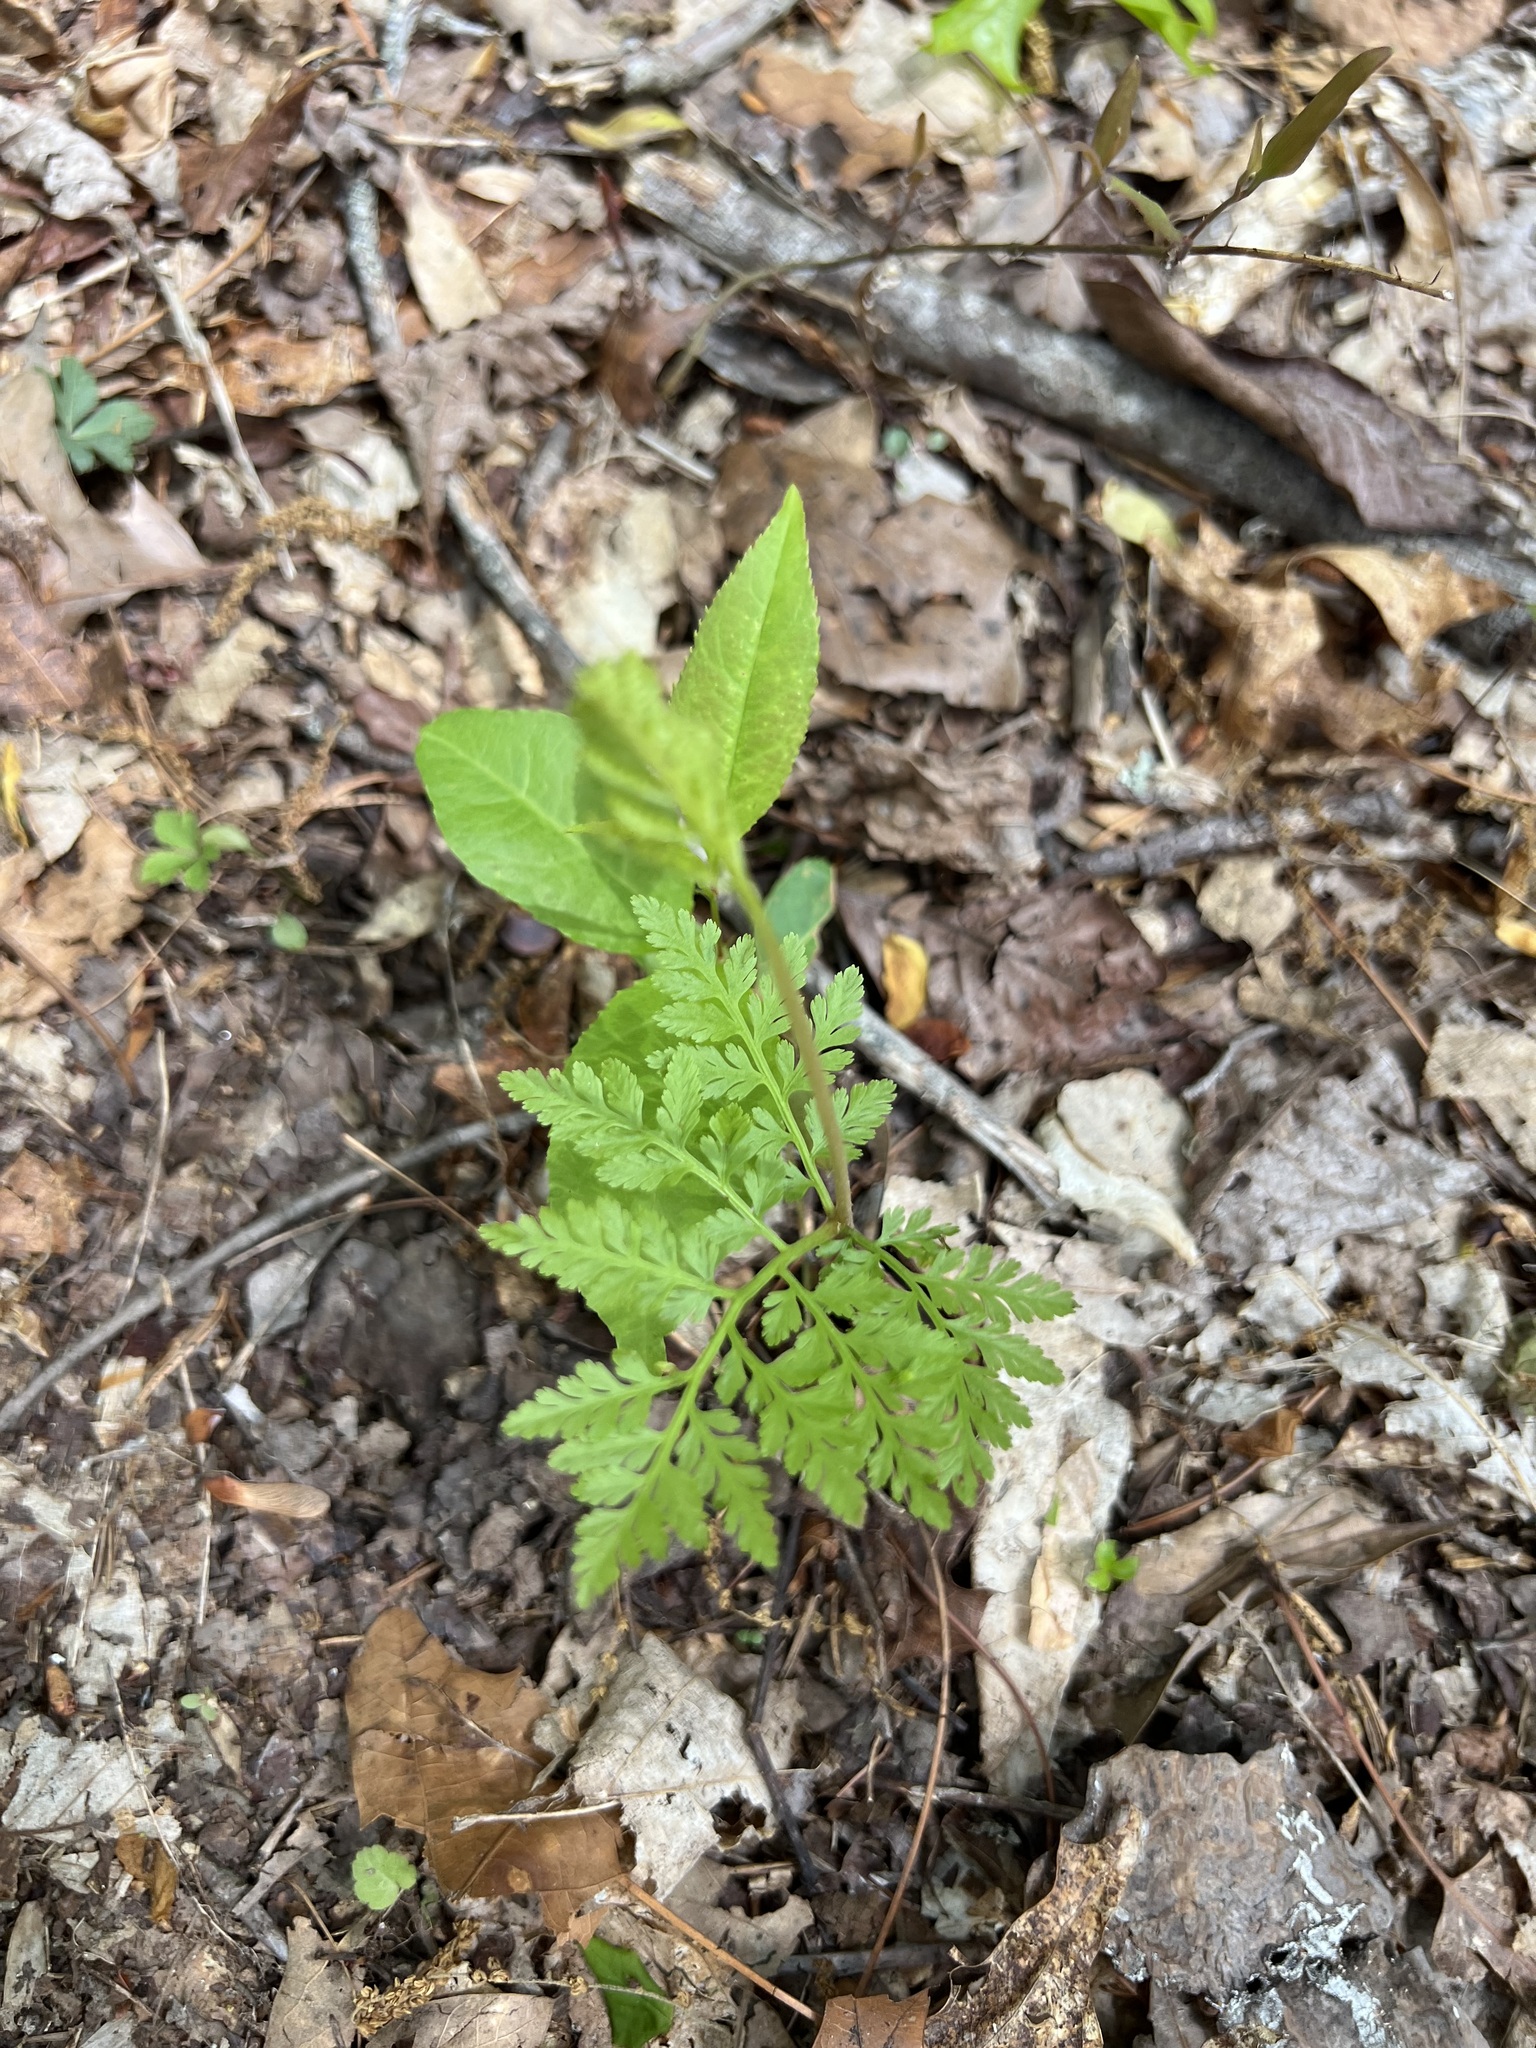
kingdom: Plantae
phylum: Tracheophyta
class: Polypodiopsida
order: Ophioglossales
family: Ophioglossaceae
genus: Botrypus
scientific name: Botrypus virginianus
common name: Common grapefern
